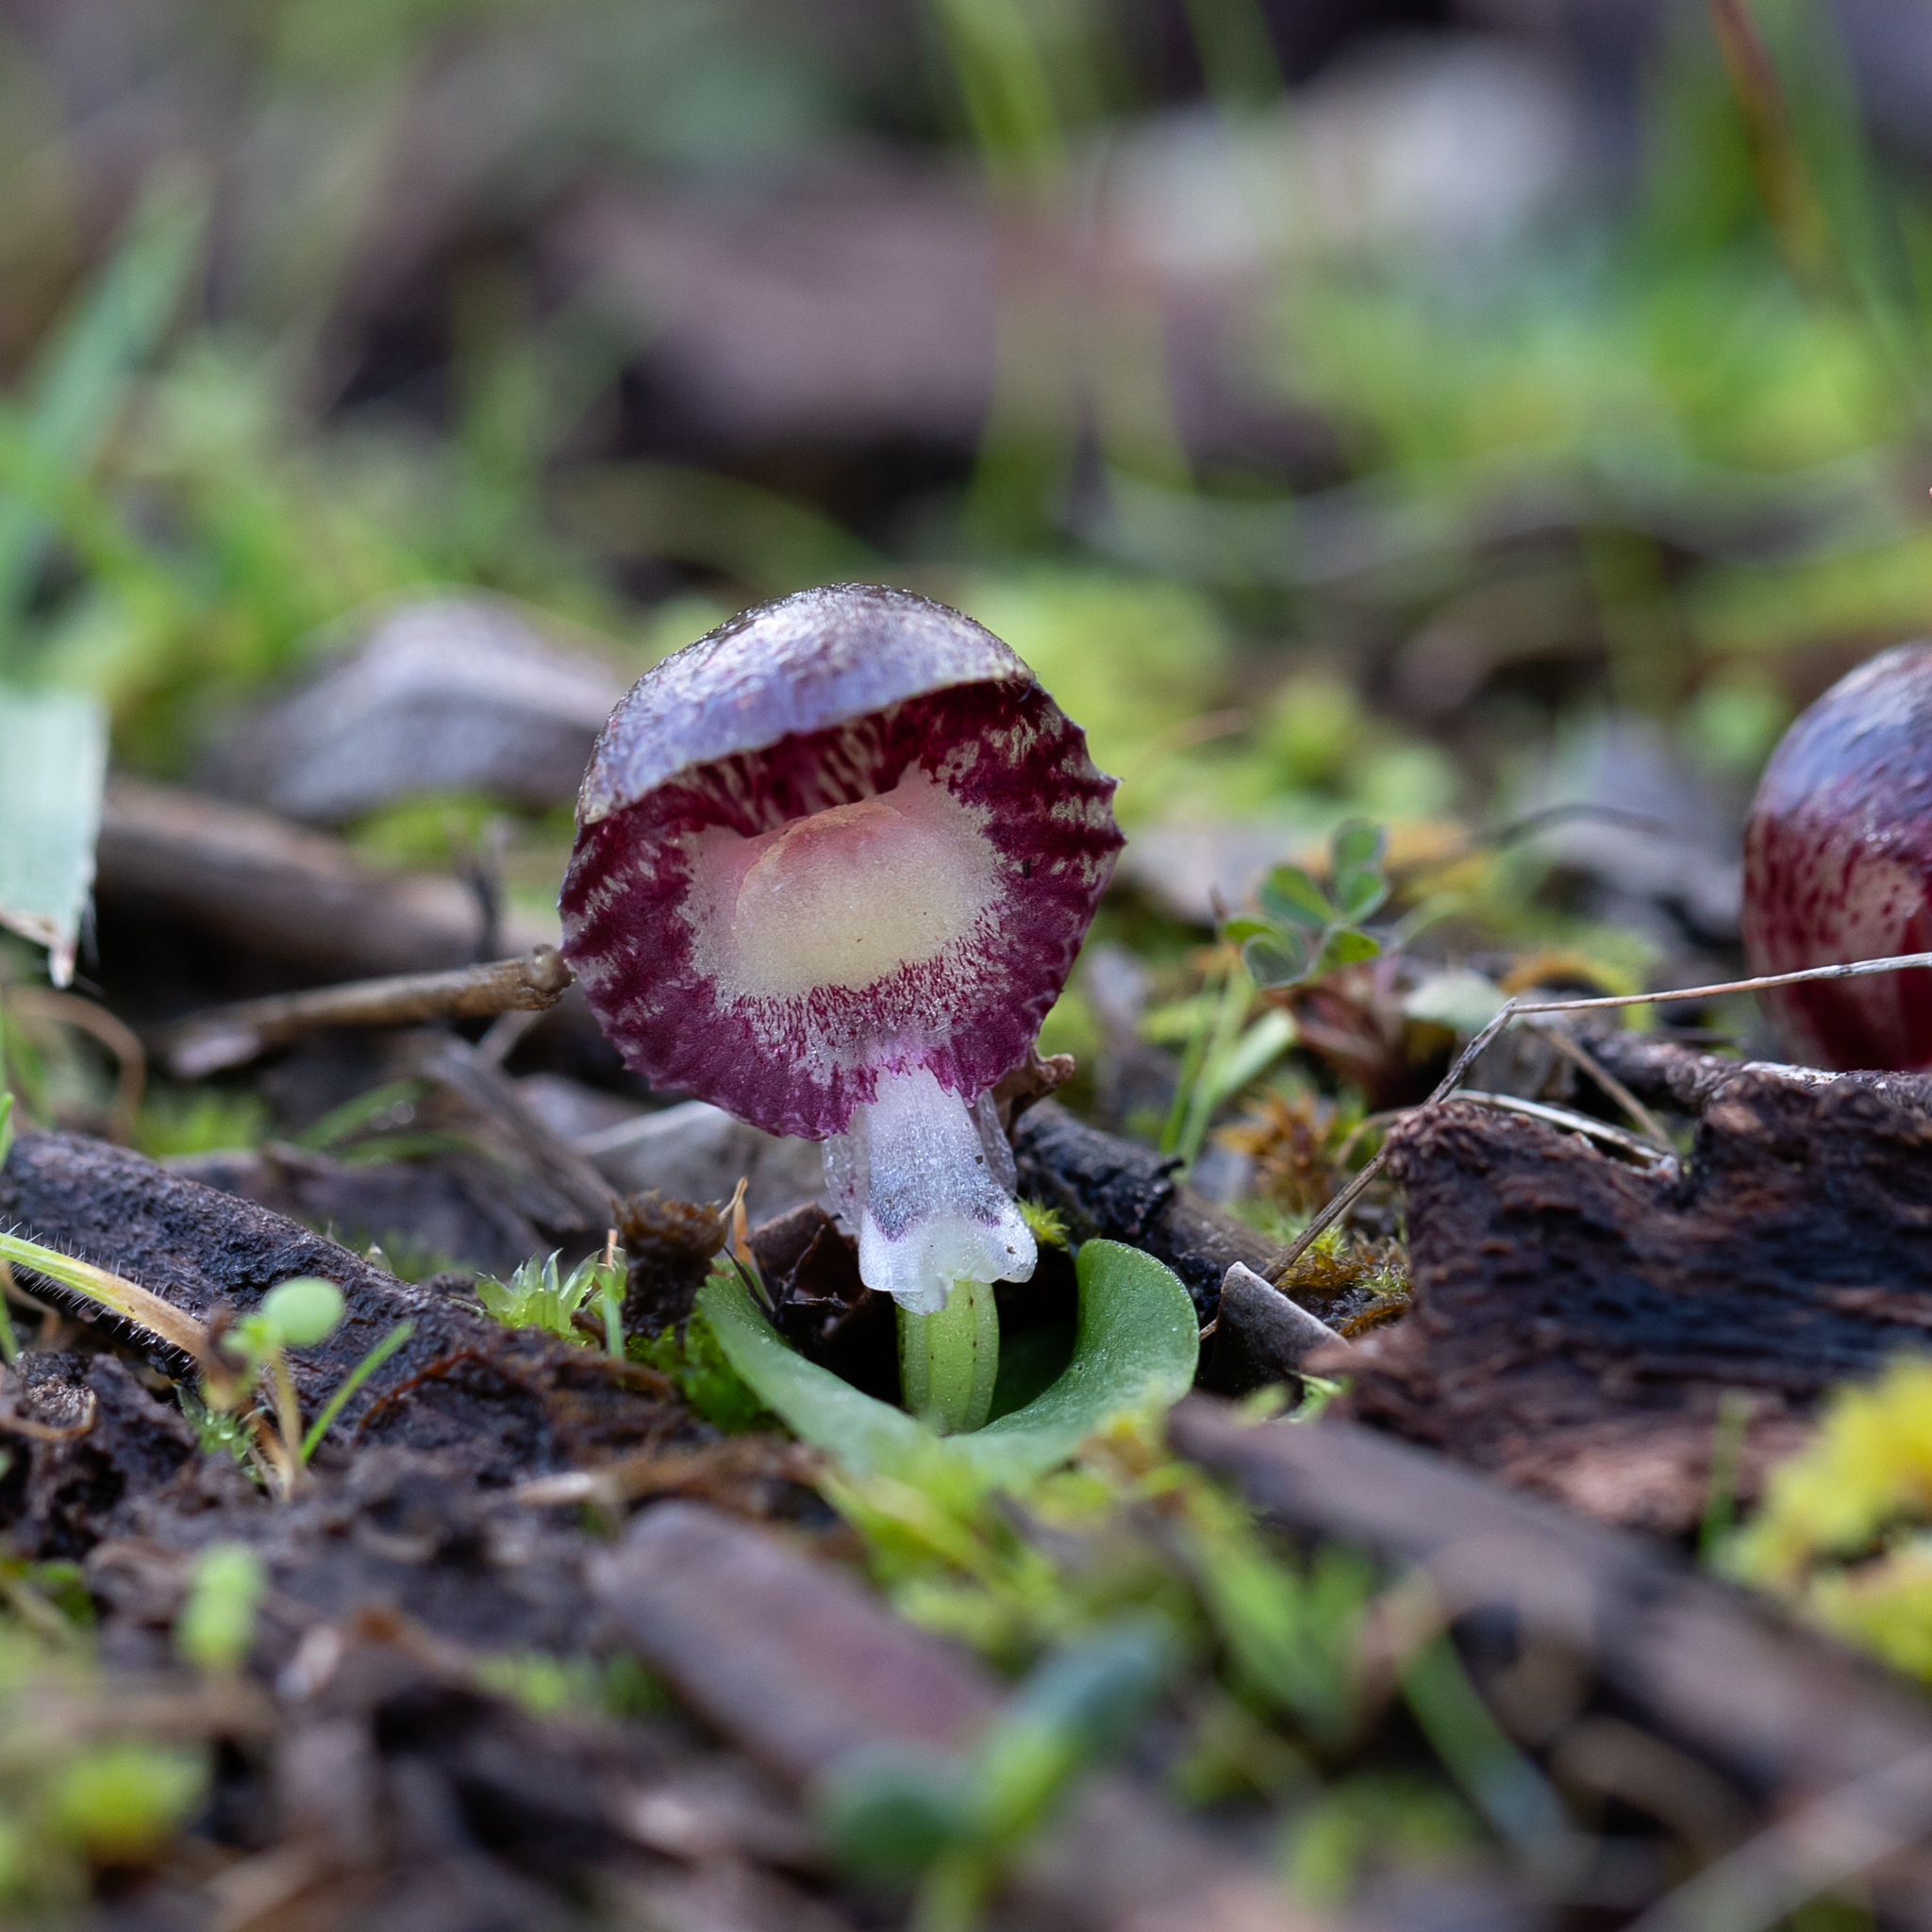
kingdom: Plantae
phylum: Tracheophyta
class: Liliopsida
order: Asparagales
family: Orchidaceae
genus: Corybas
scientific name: Corybas diemenicus
